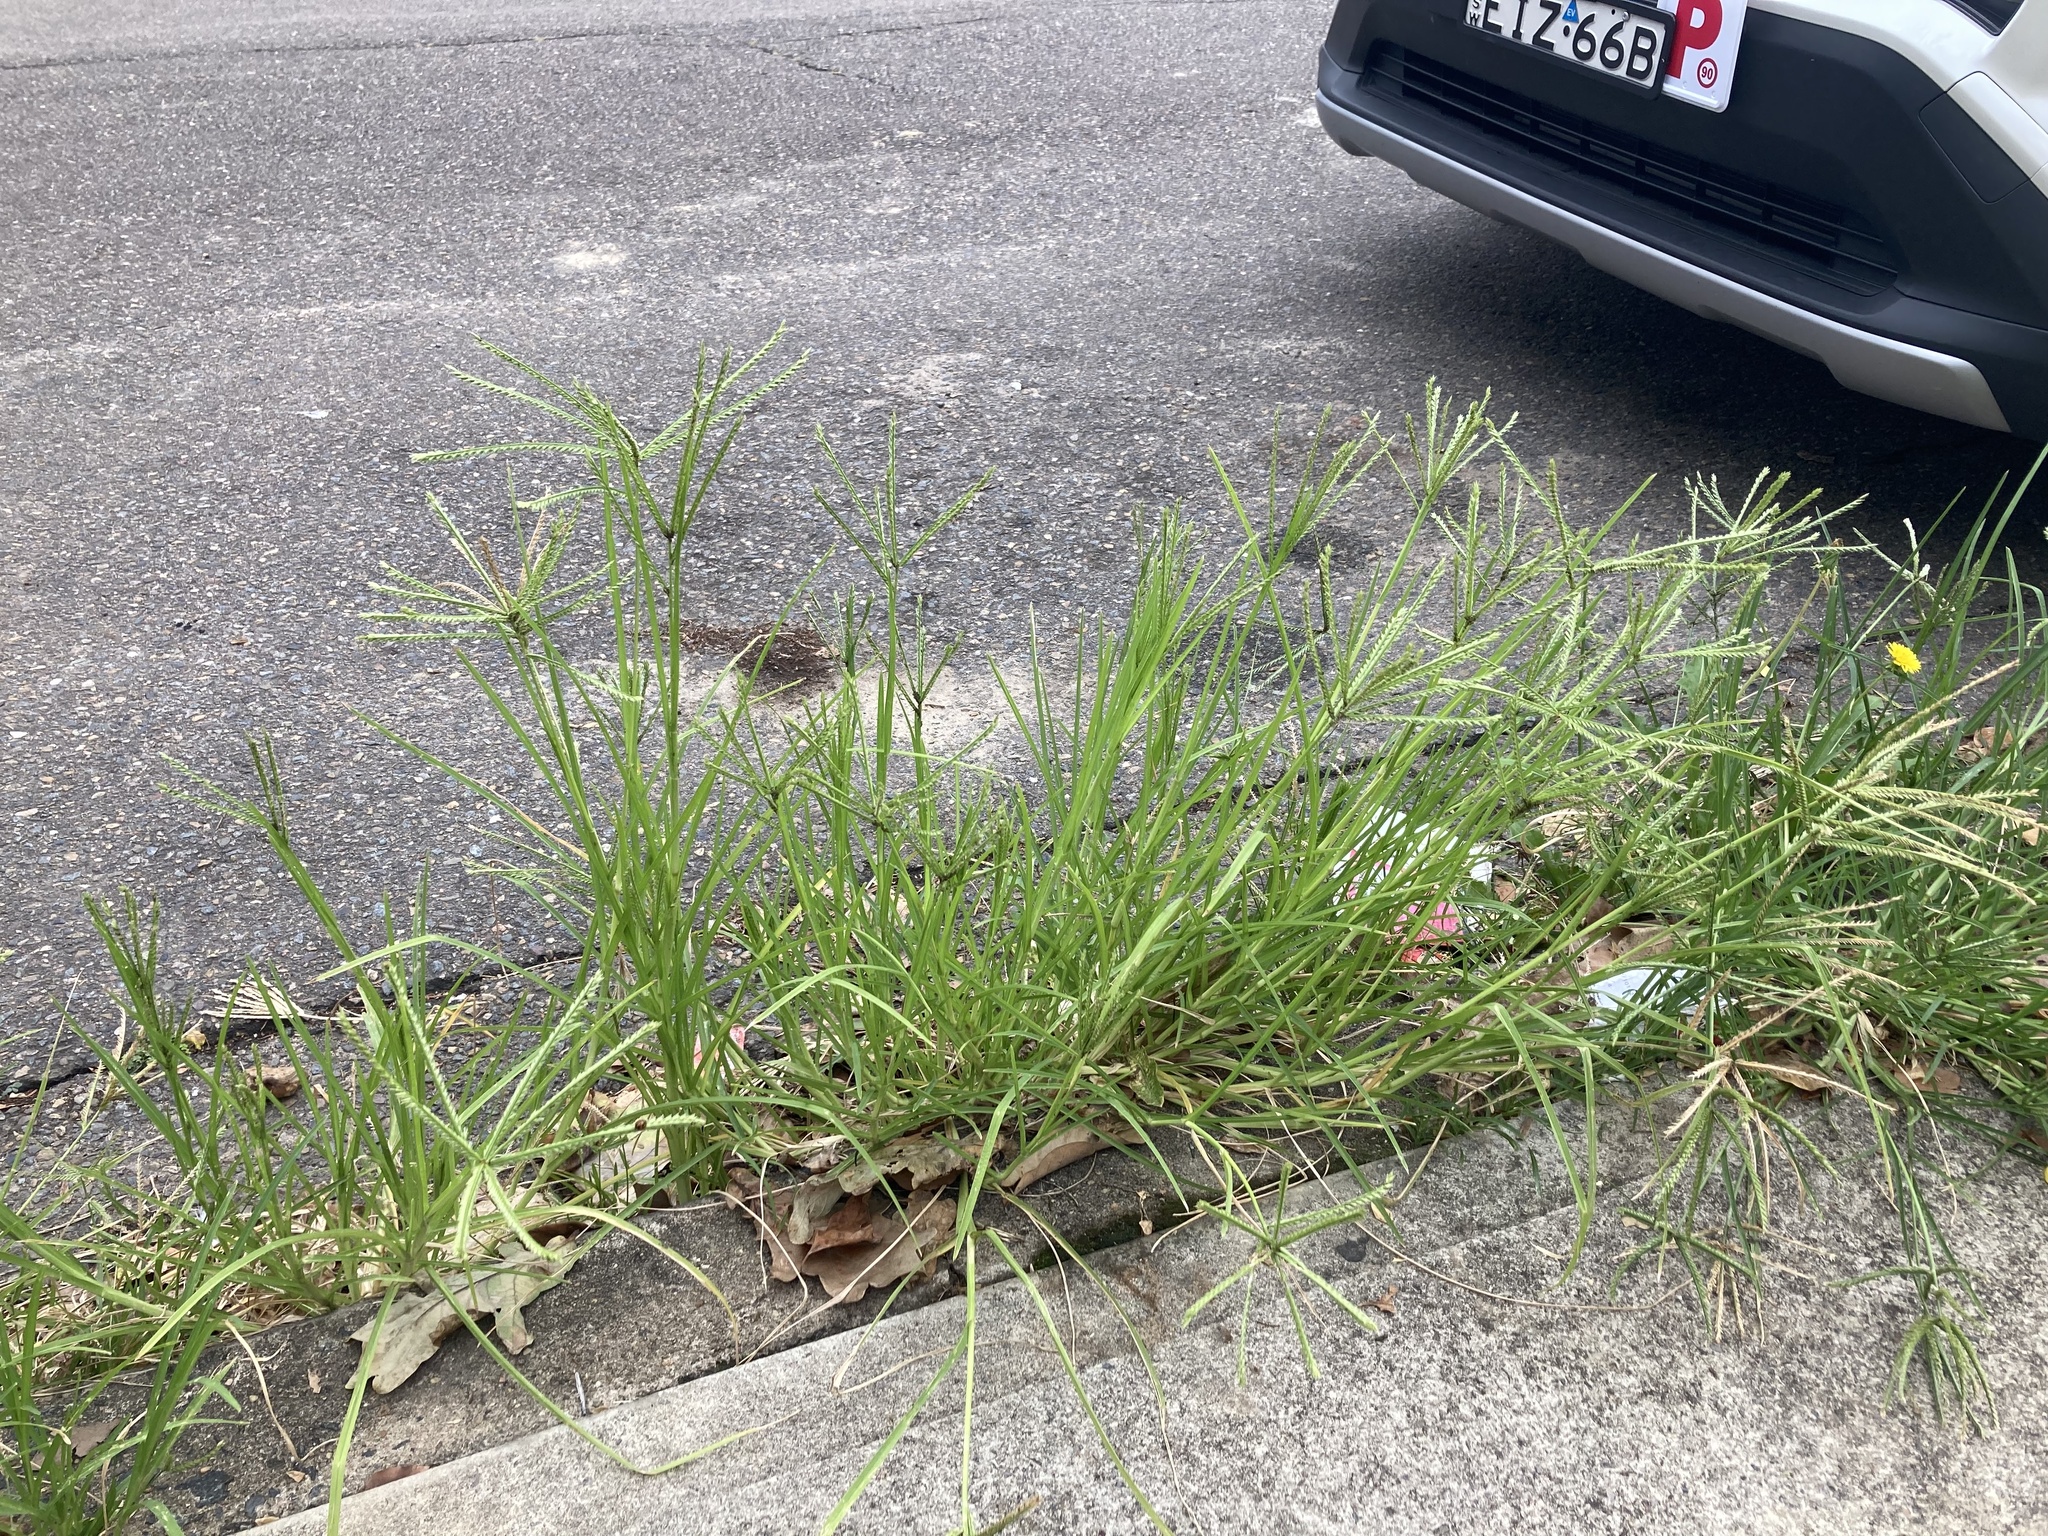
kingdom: Plantae
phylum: Tracheophyta
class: Liliopsida
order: Poales
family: Poaceae
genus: Eleusine
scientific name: Eleusine indica
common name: Yard-grass
